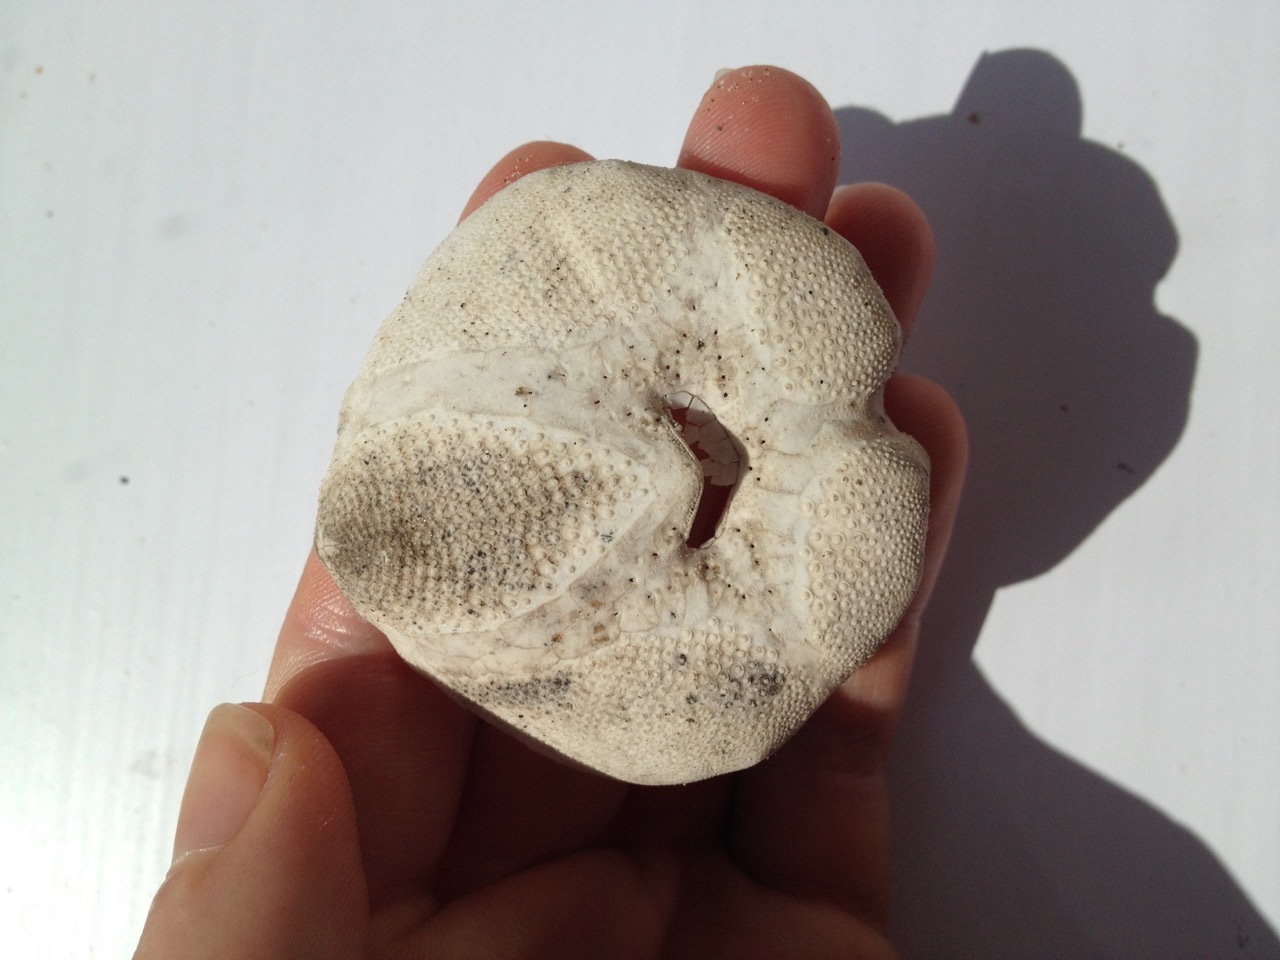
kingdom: Animalia
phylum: Echinodermata
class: Echinoidea
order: Spatangoida
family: Loveniidae
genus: Echinocardium
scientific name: Echinocardium
